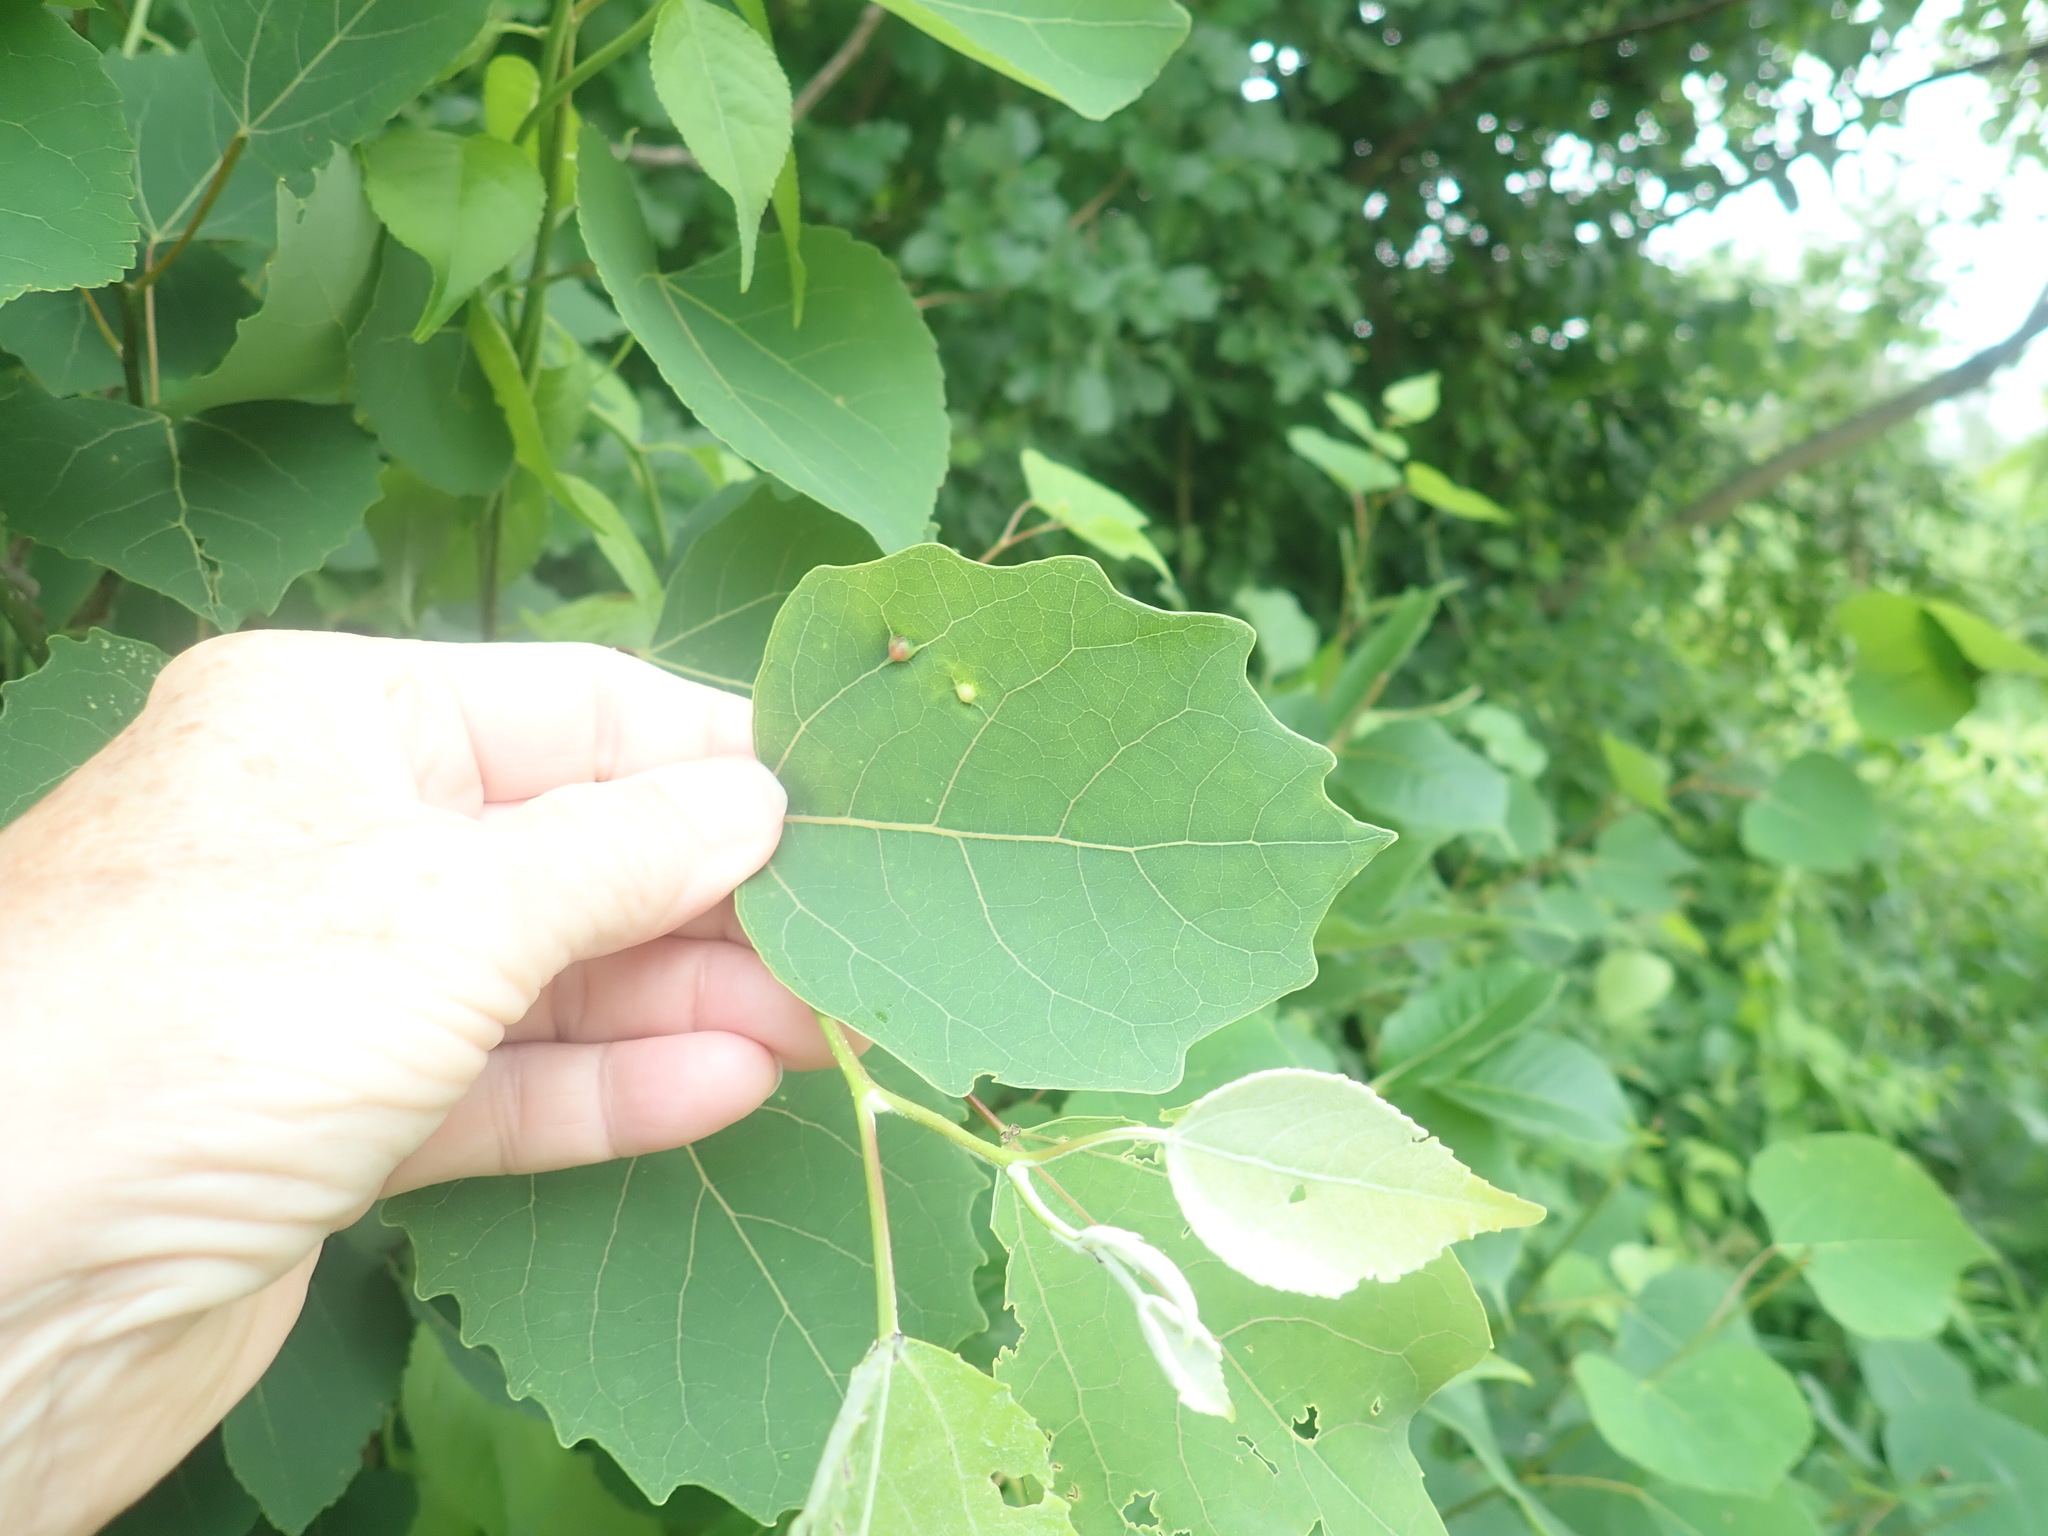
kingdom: Plantae
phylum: Tracheophyta
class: Magnoliopsida
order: Malpighiales
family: Salicaceae
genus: Populus
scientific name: Populus grandidentata
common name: Bigtooth aspen
